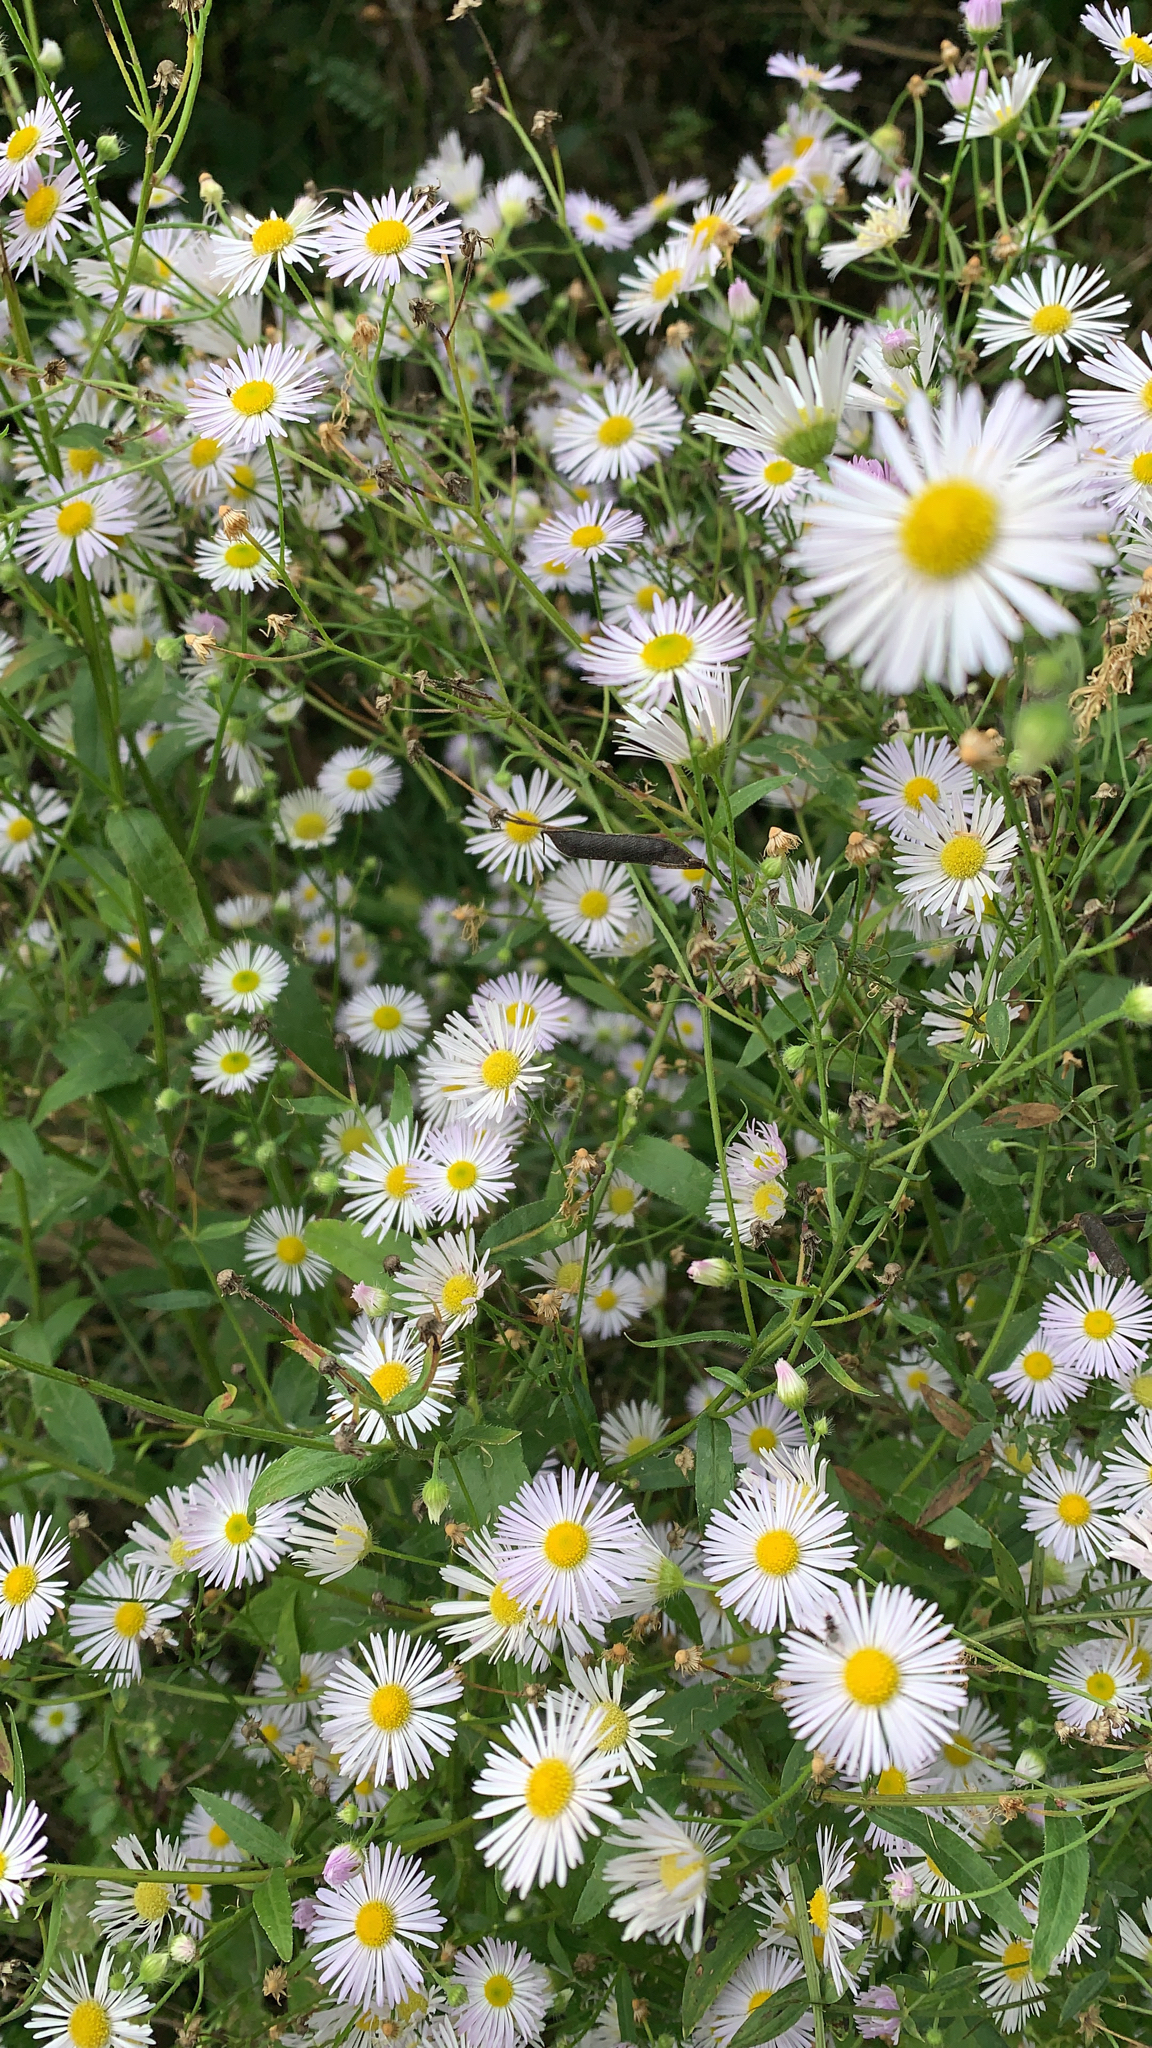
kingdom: Plantae
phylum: Tracheophyta
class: Magnoliopsida
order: Asterales
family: Asteraceae
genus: Erigeron
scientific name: Erigeron annuus
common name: Tall fleabane
